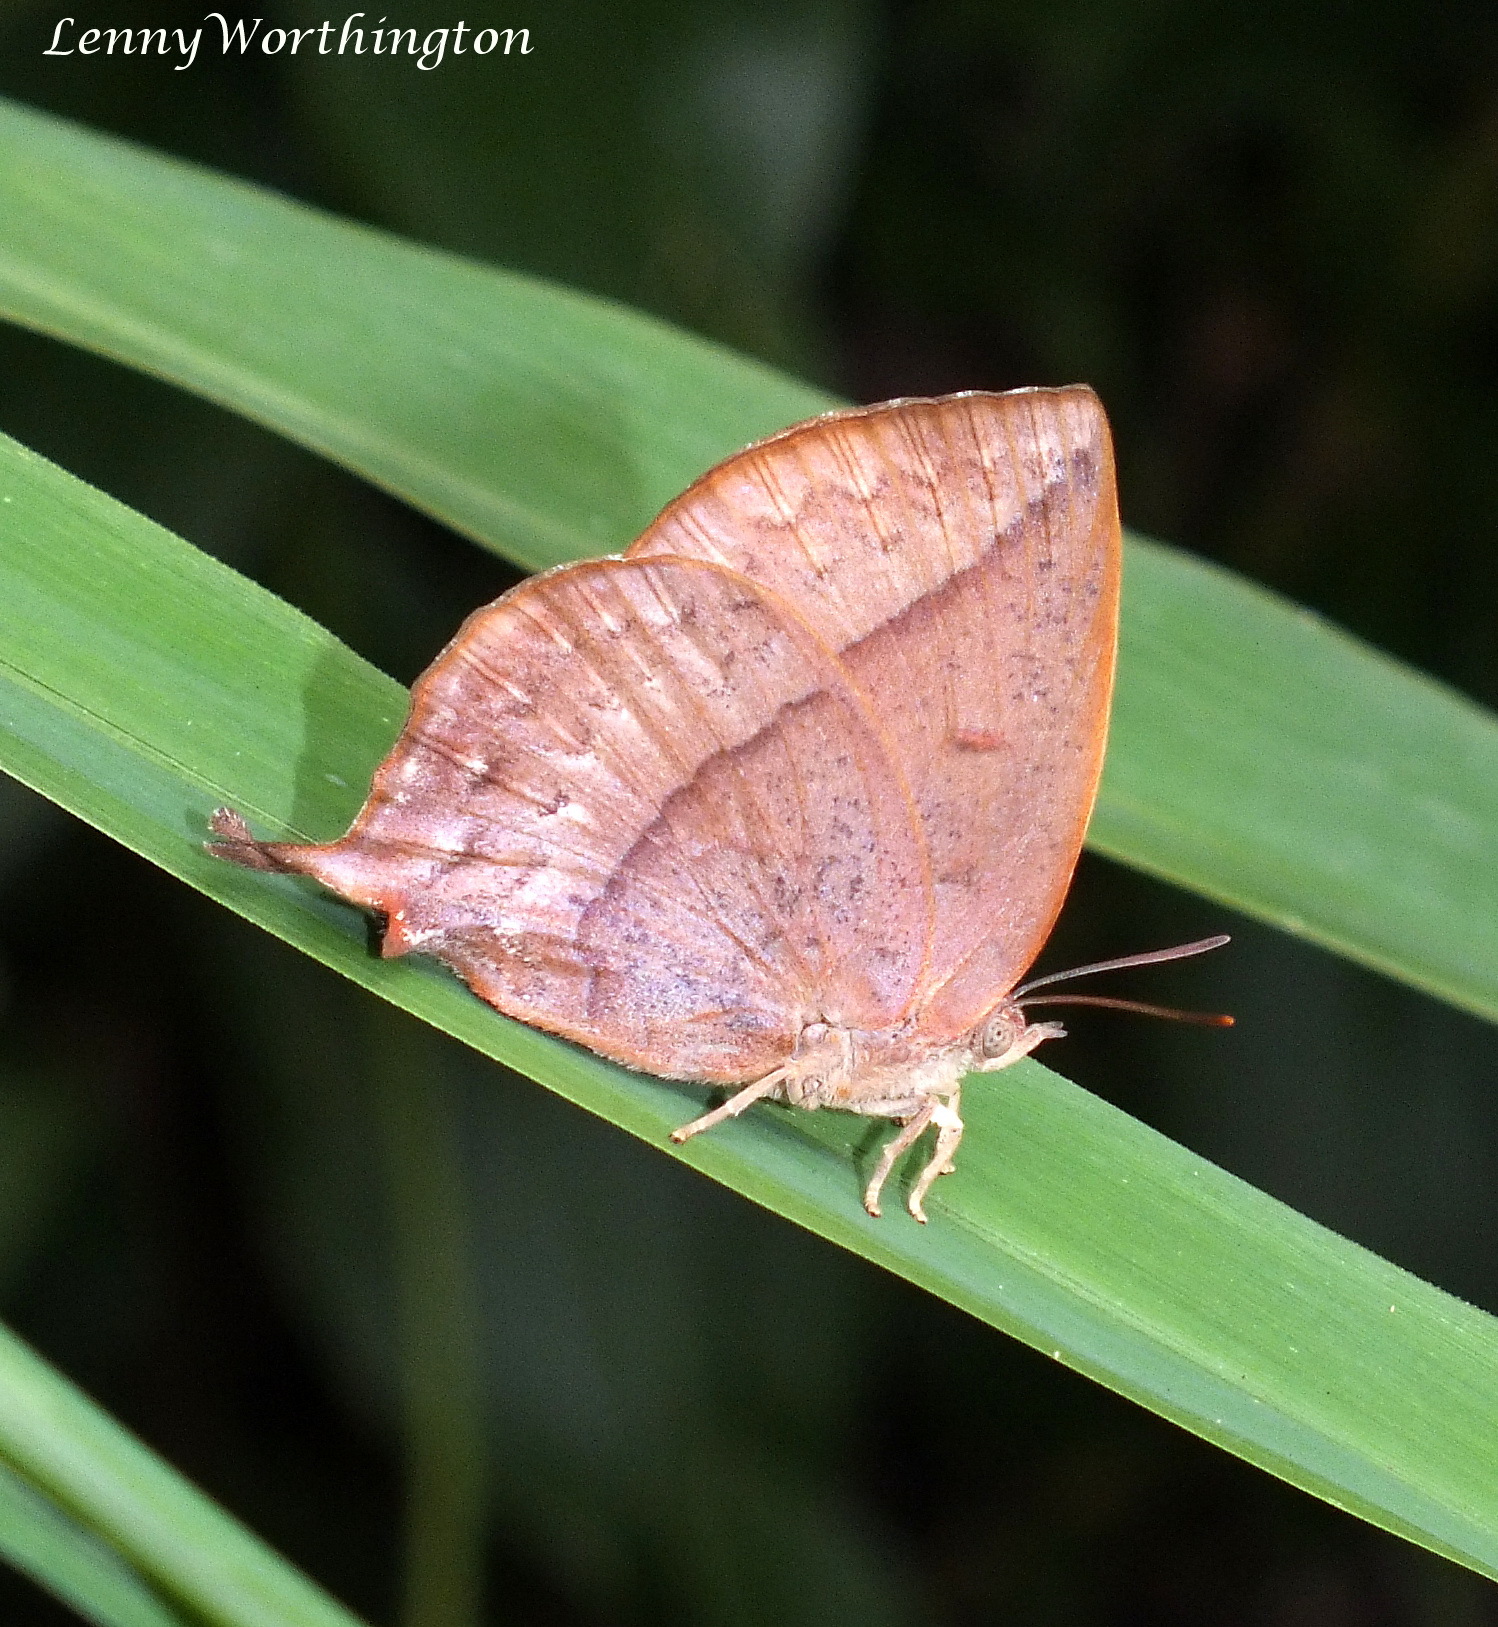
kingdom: Animalia
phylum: Arthropoda
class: Insecta
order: Lepidoptera
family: Lycaenidae
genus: Amblypodia
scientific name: Amblypodia anita
